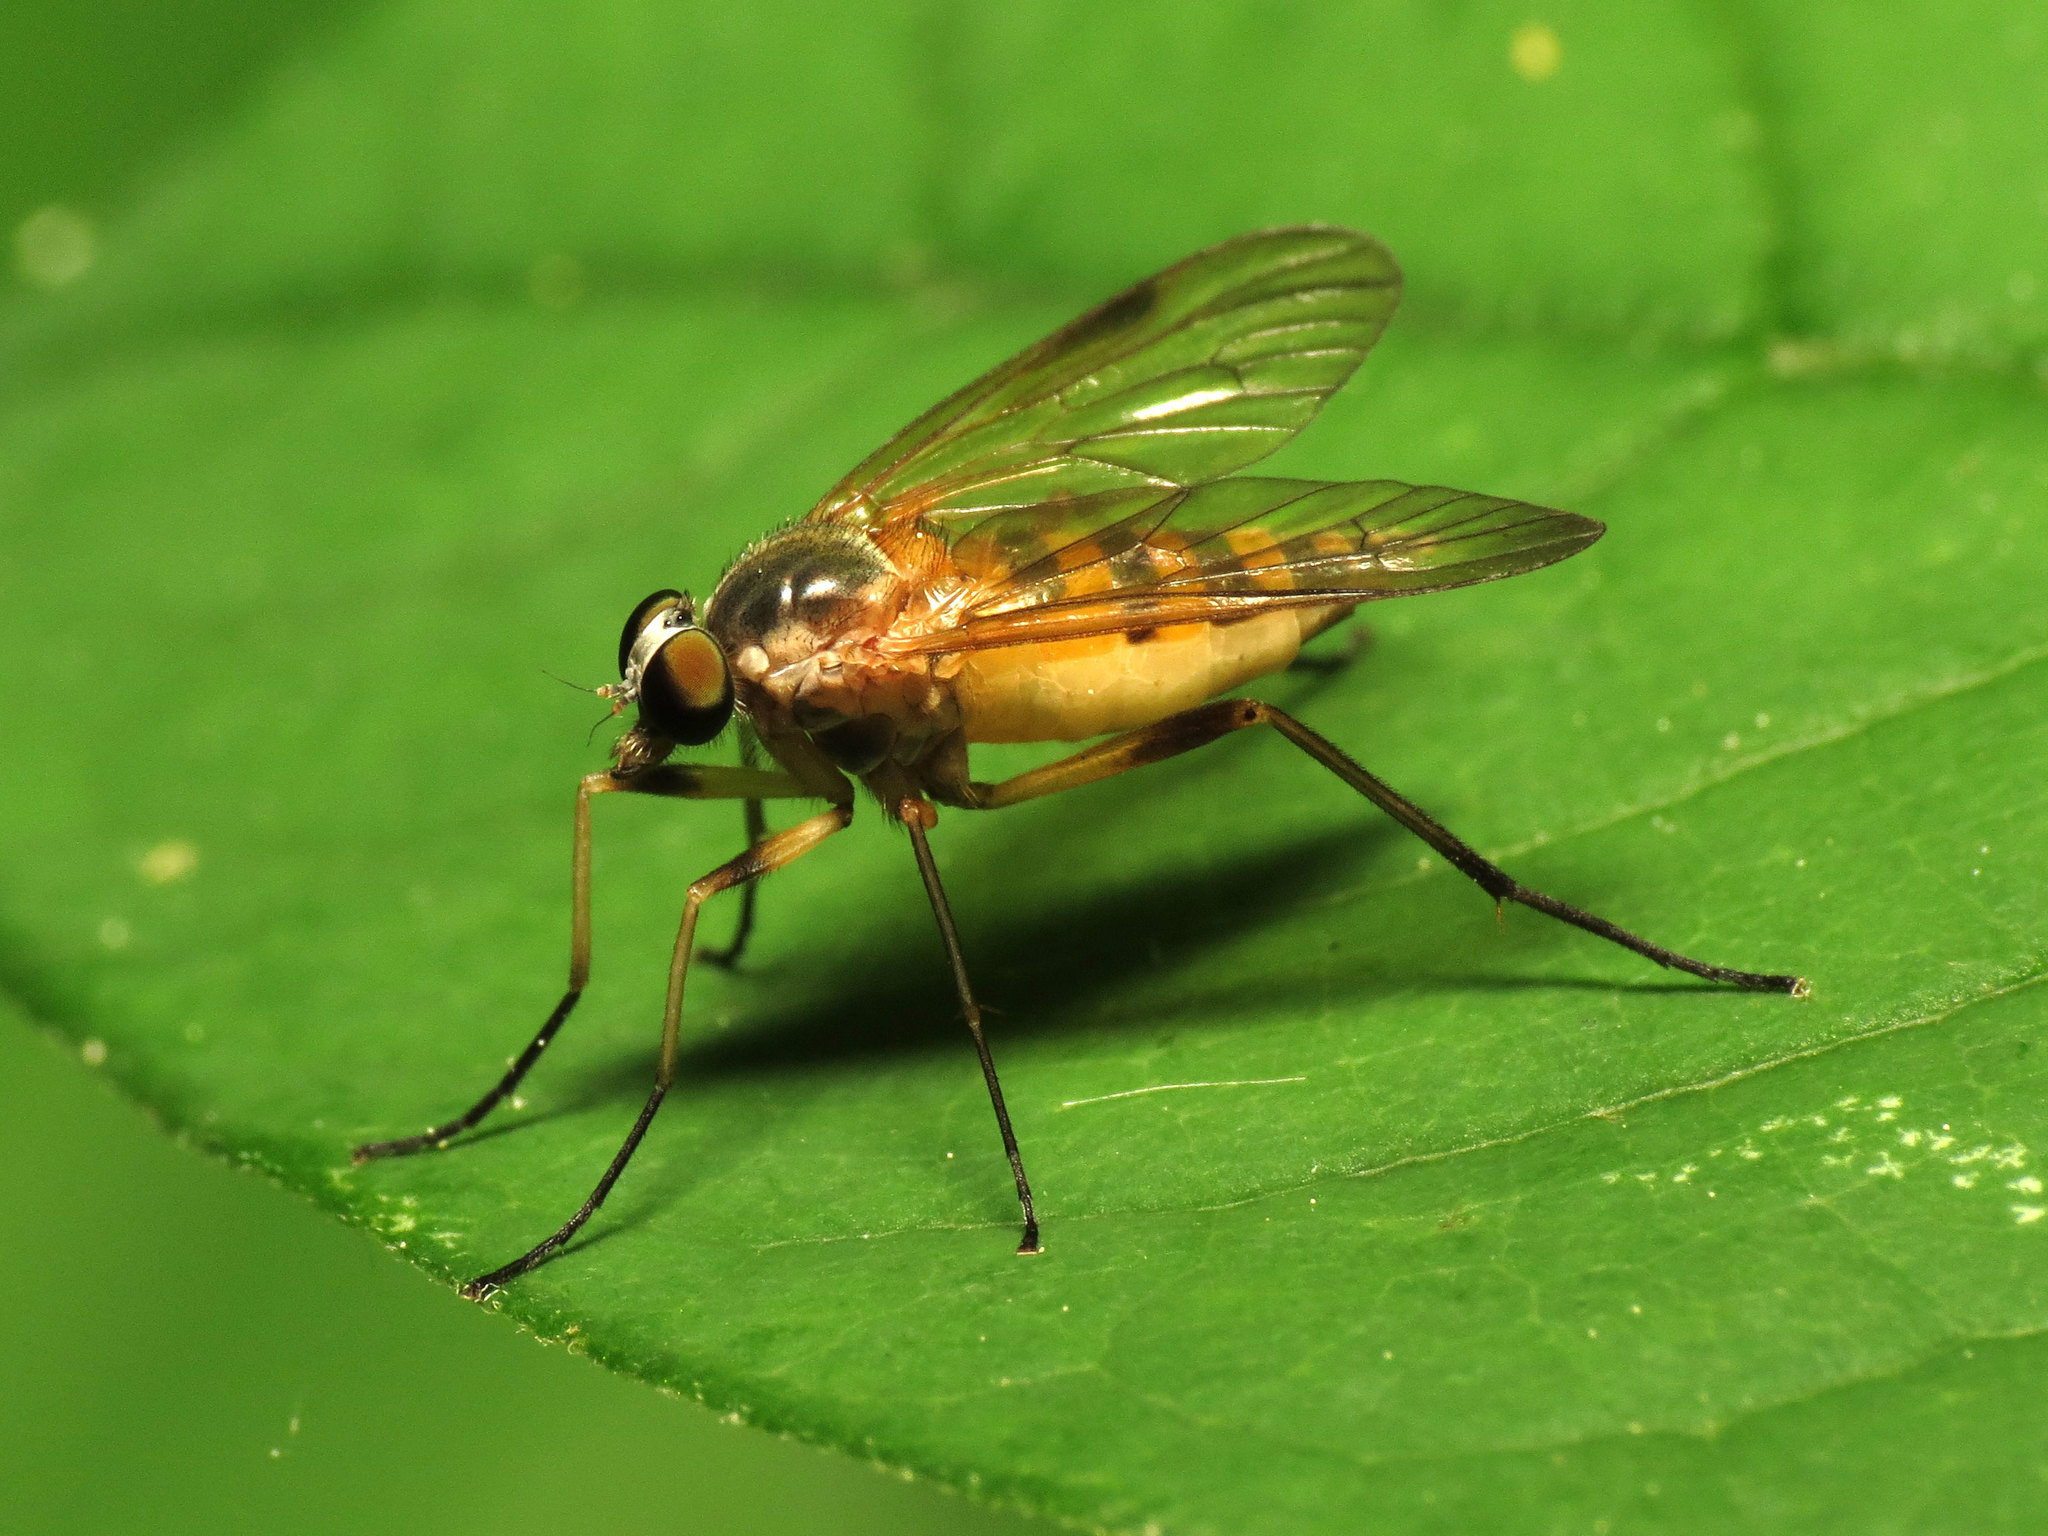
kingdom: Animalia
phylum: Arthropoda
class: Insecta
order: Diptera
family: Rhagionidae
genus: Rhagio
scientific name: Rhagio hirta
